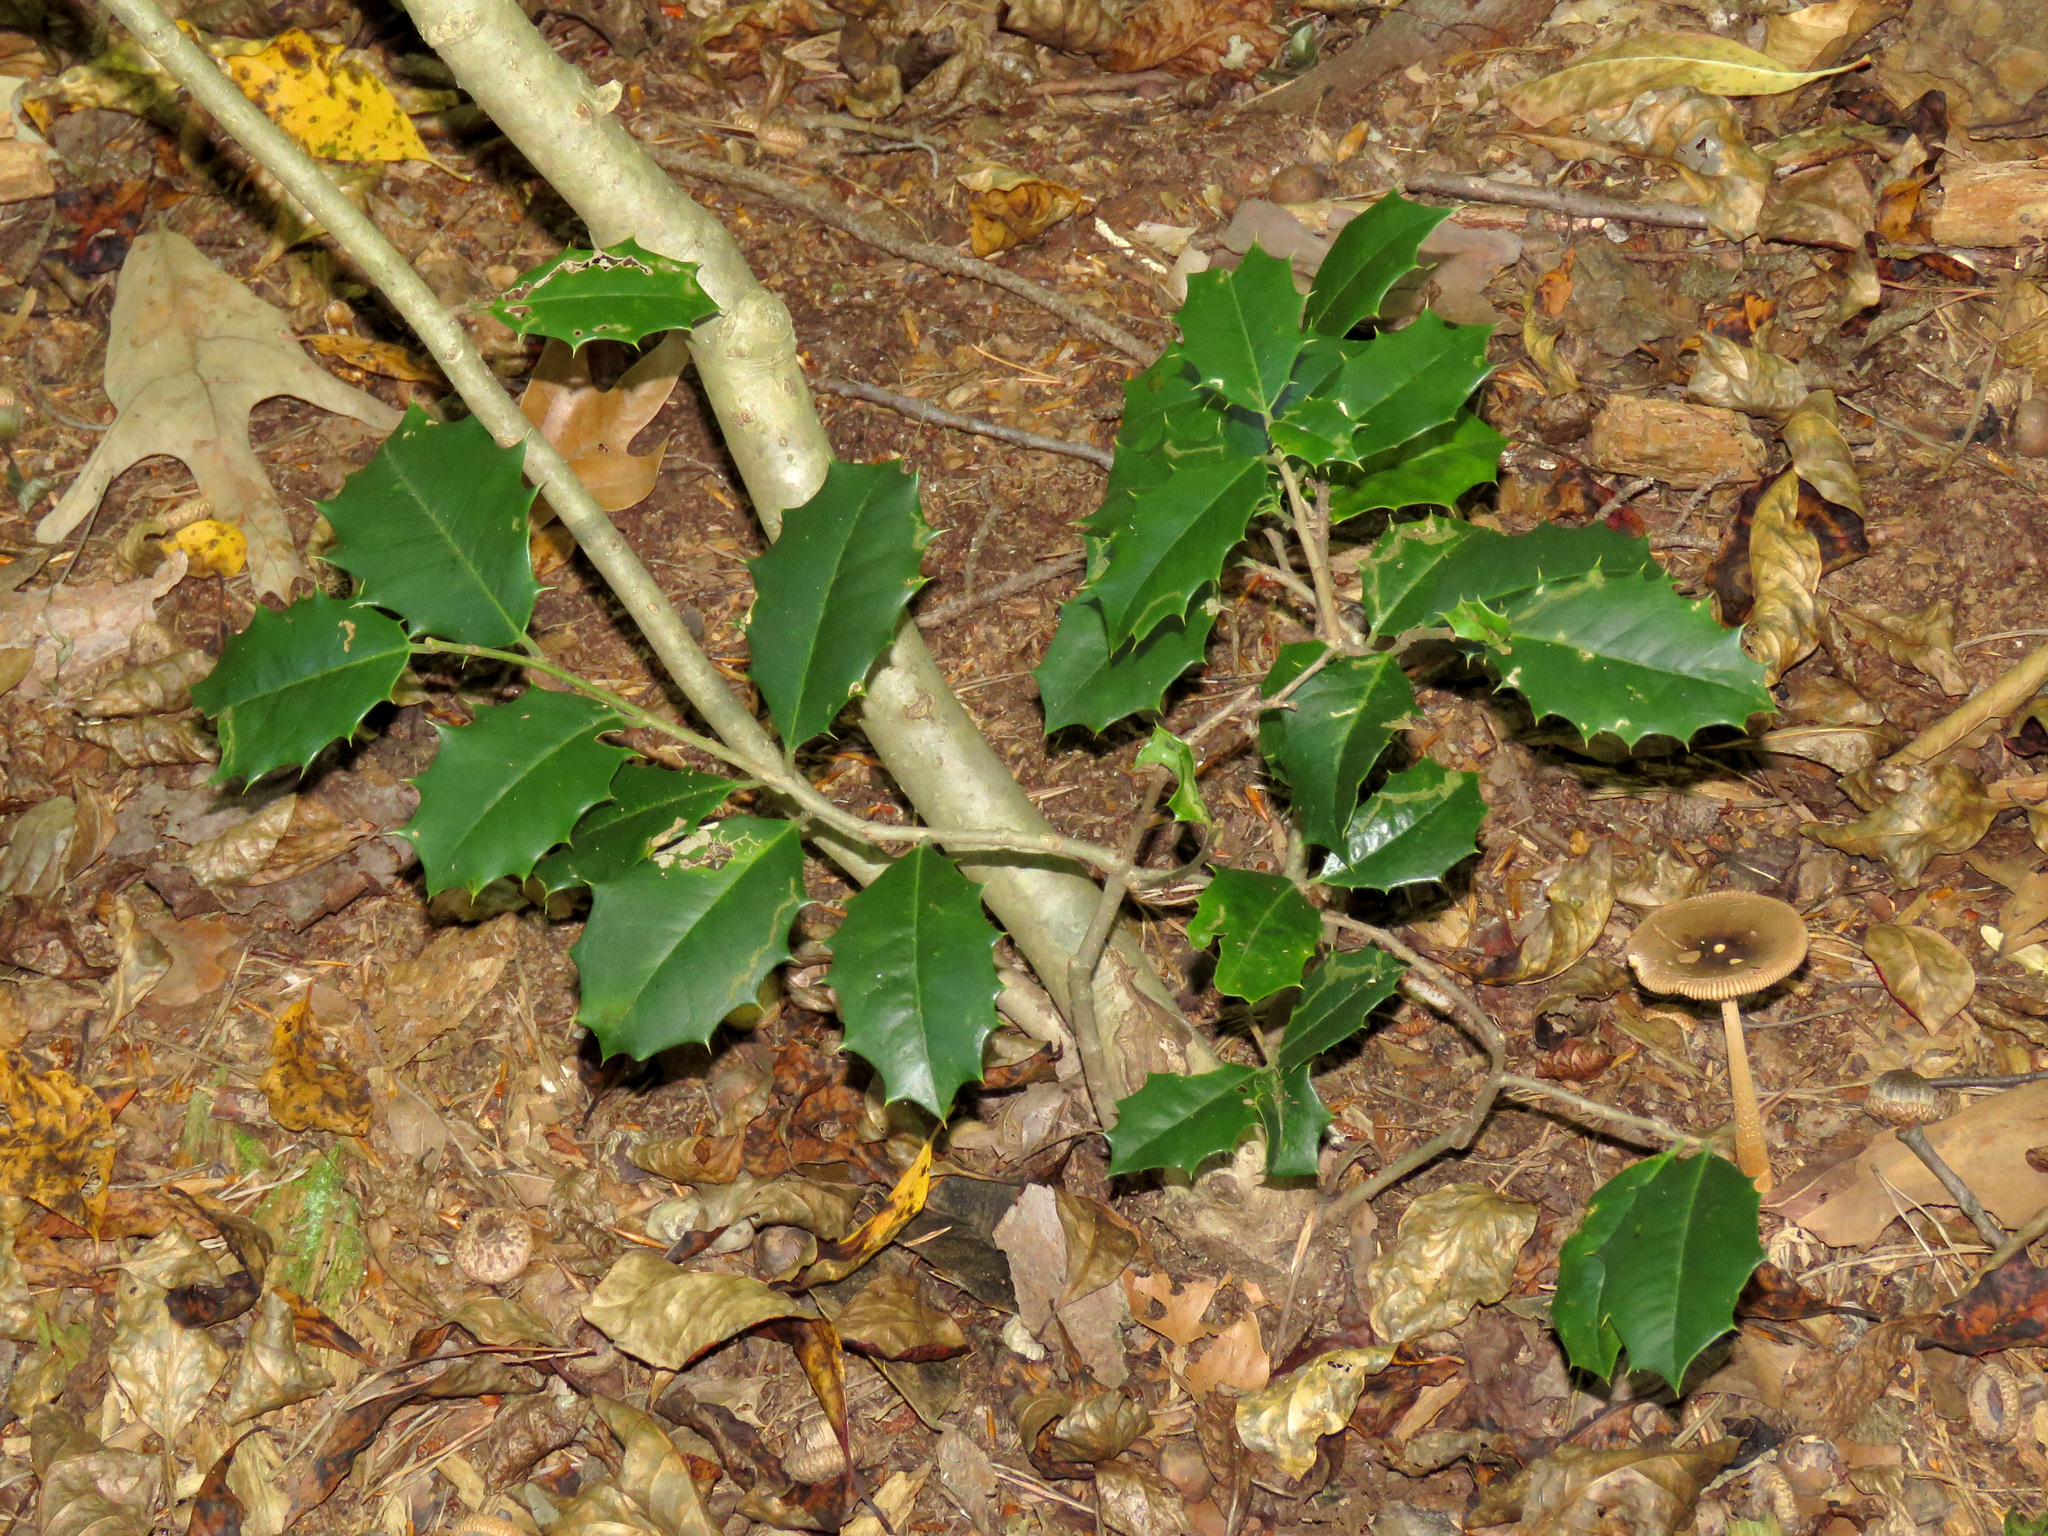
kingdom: Plantae
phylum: Tracheophyta
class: Magnoliopsida
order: Aquifoliales
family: Aquifoliaceae
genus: Ilex
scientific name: Ilex opaca
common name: American holly
